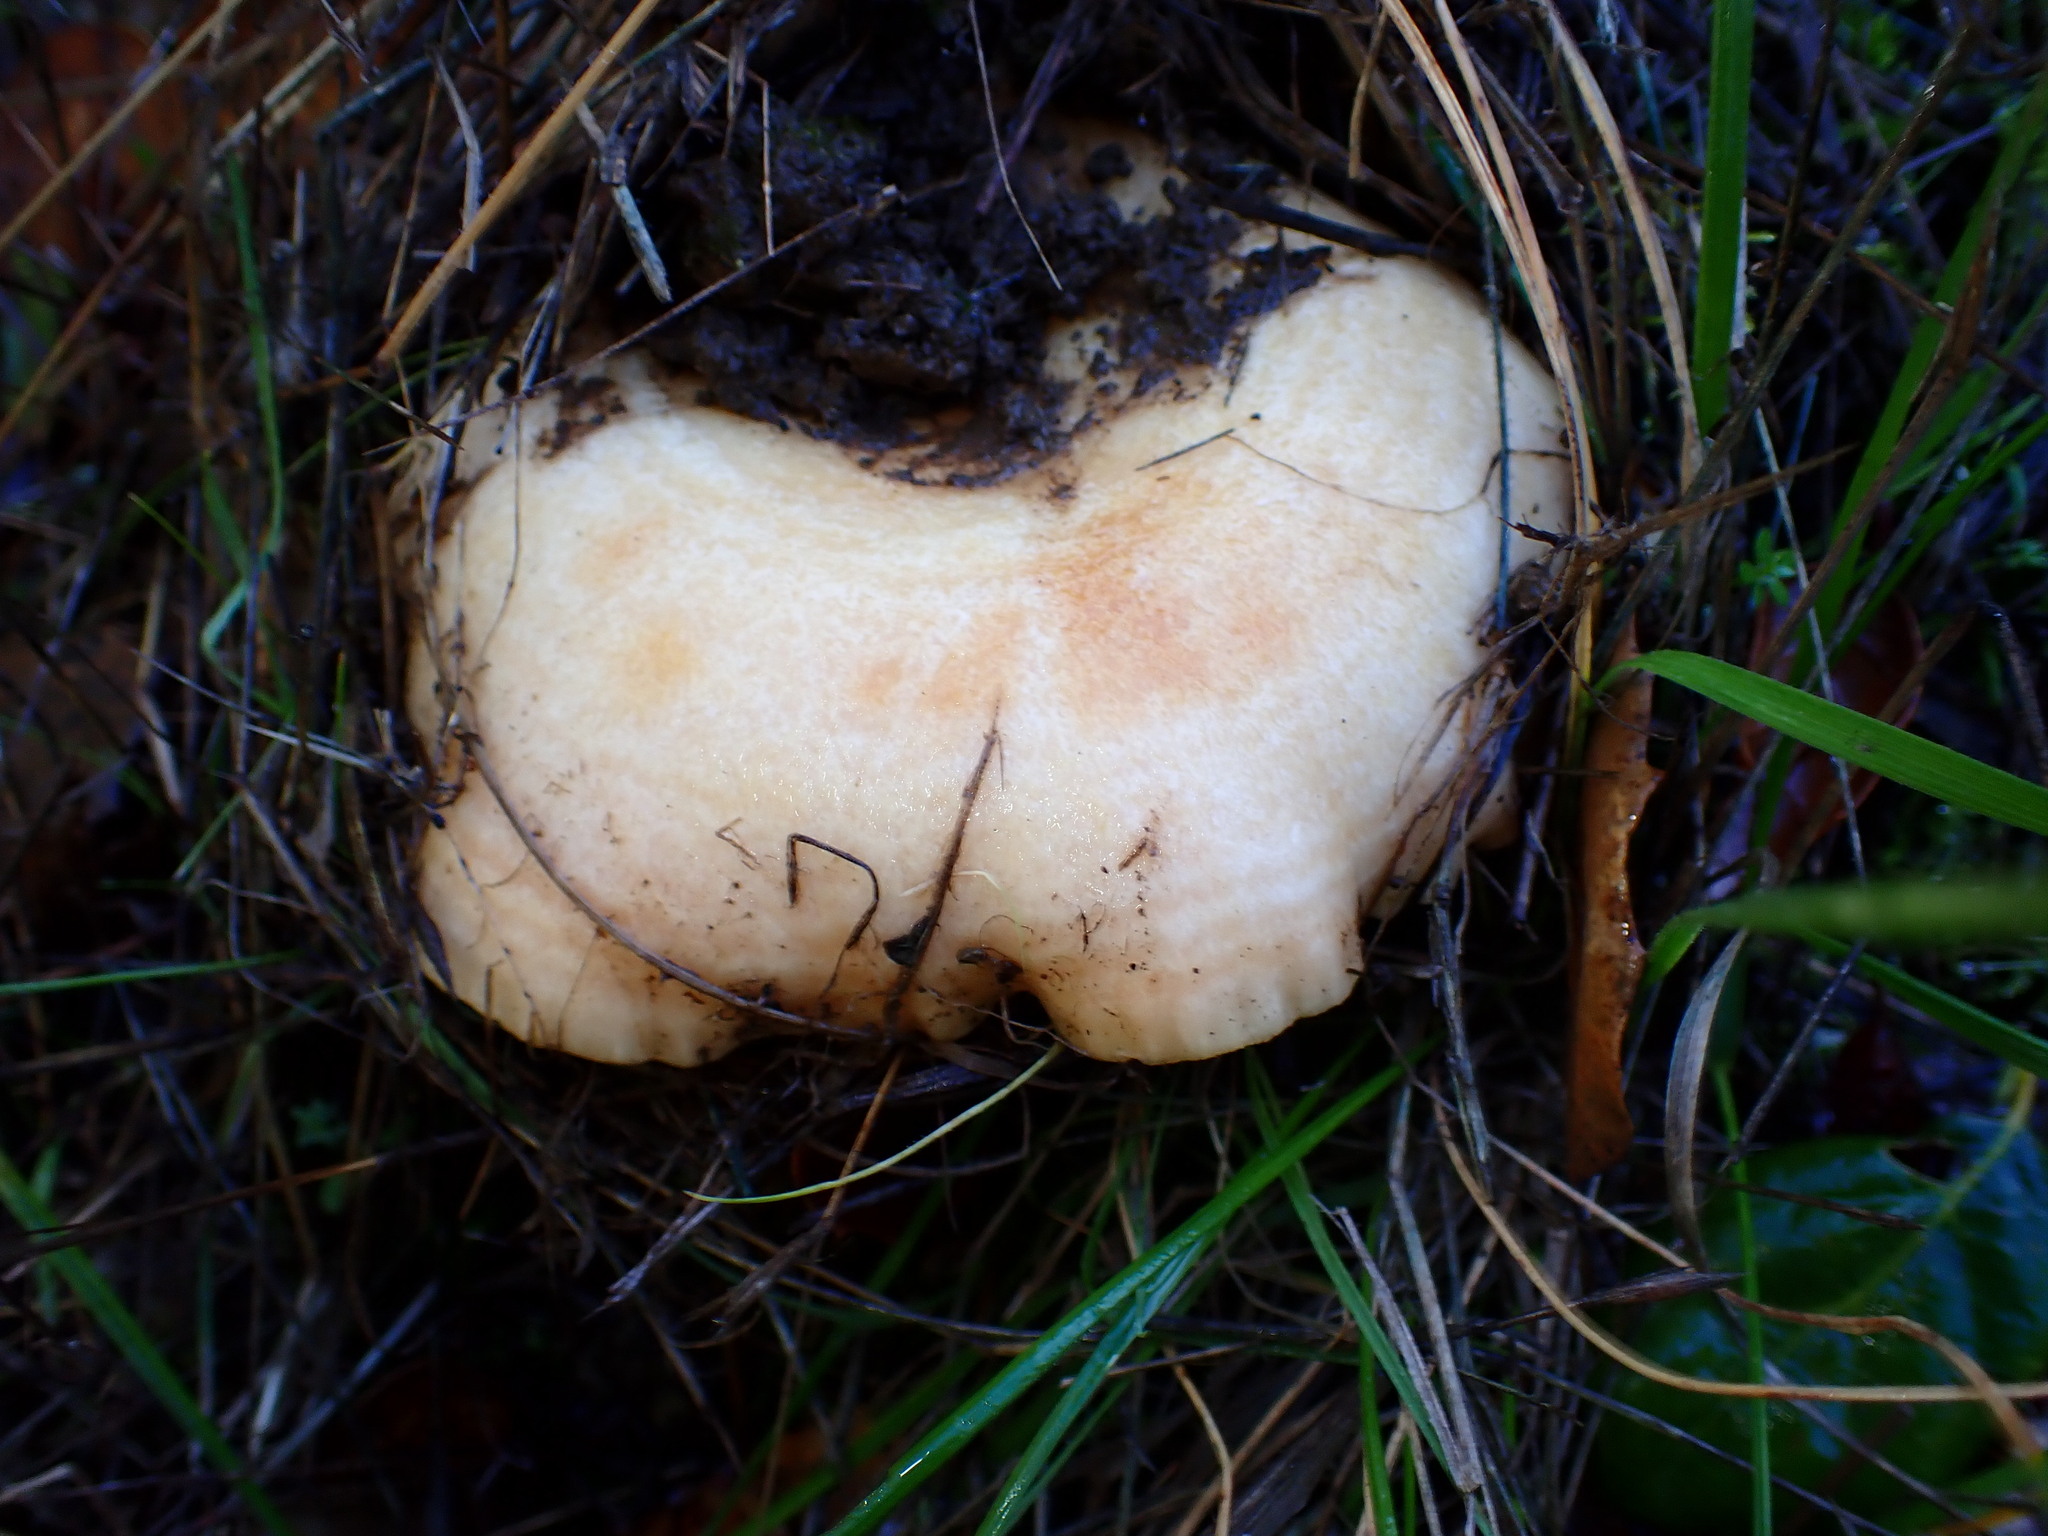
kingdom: Fungi
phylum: Basidiomycota
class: Agaricomycetes
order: Russulales
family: Russulaceae
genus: Lactarius
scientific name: Lactarius alnicola
